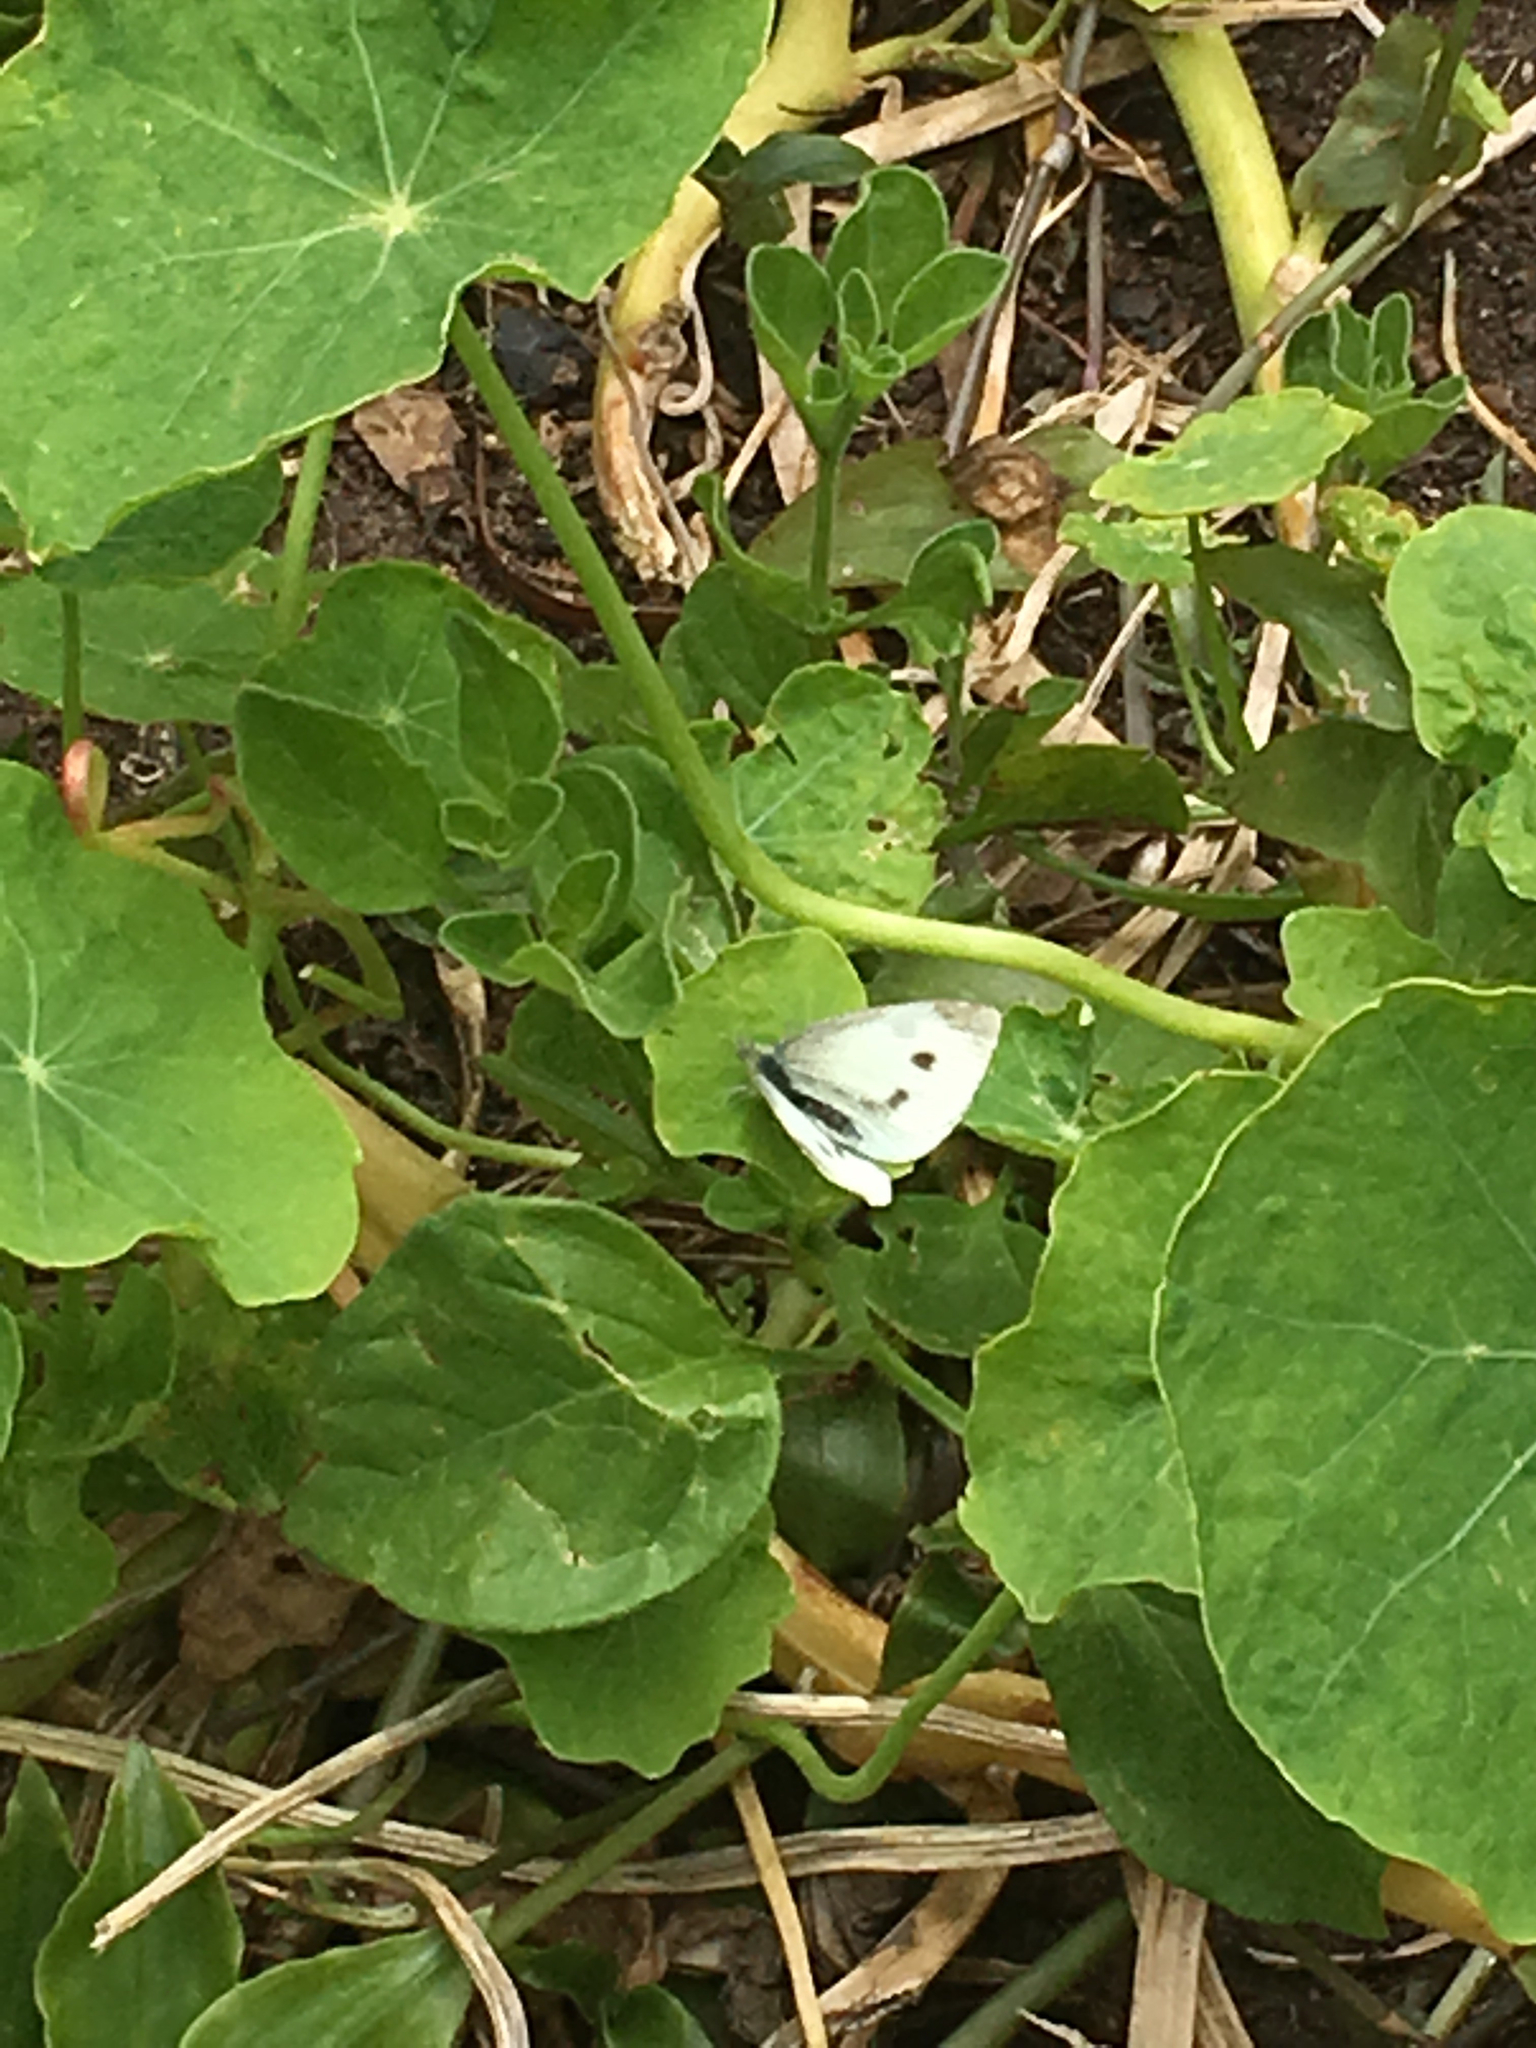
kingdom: Animalia
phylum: Arthropoda
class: Insecta
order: Lepidoptera
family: Pieridae
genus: Pieris
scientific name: Pieris rapae
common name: Small white
